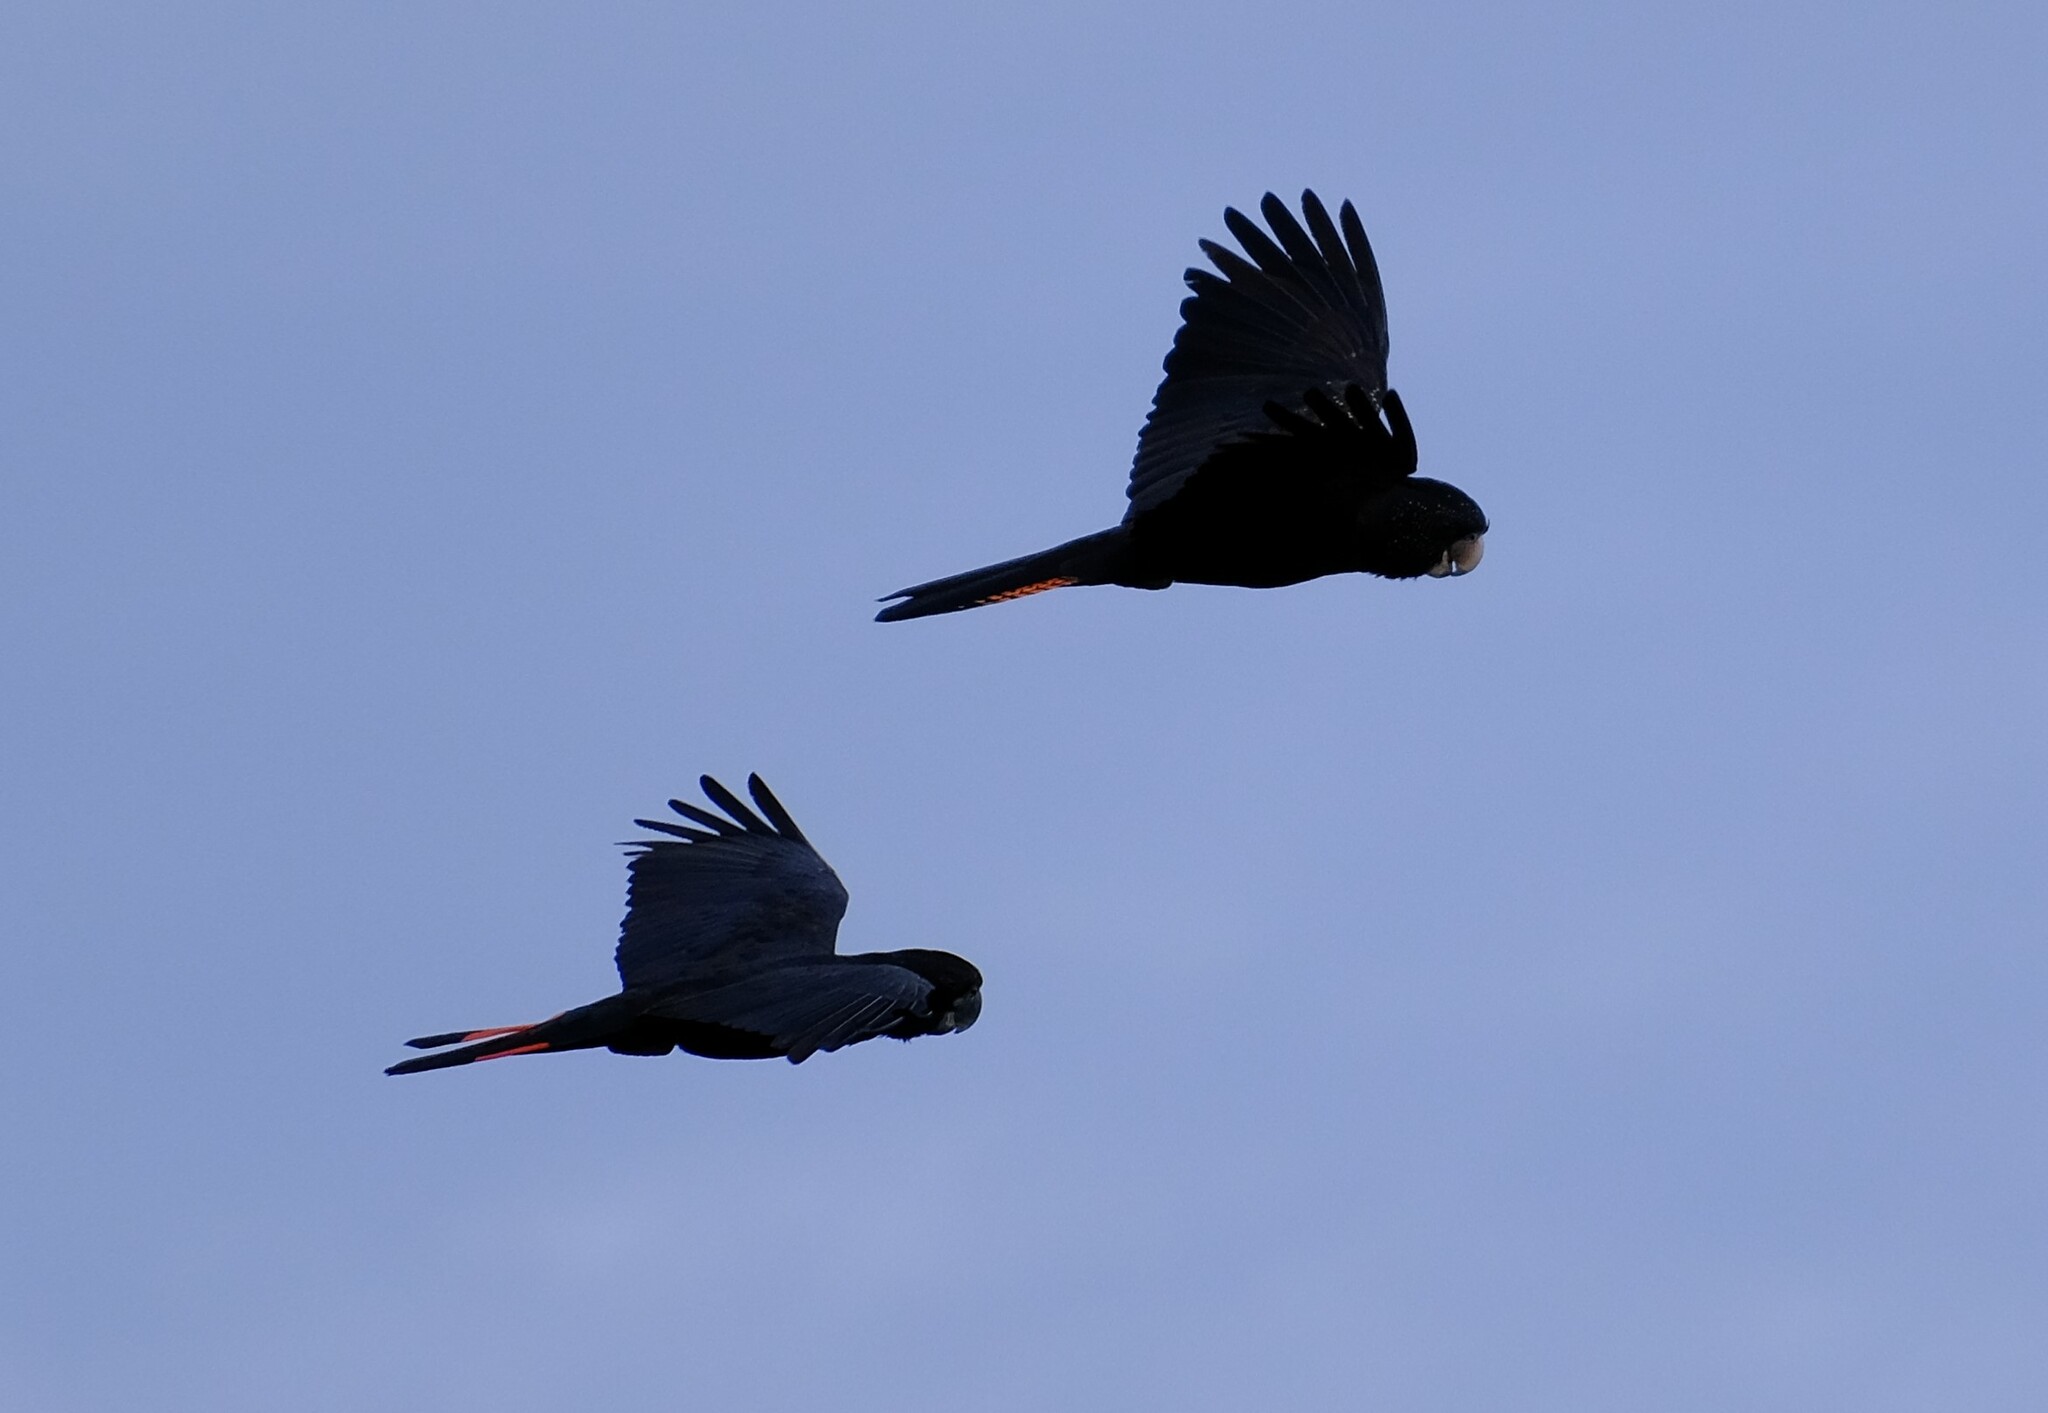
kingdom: Animalia
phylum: Chordata
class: Aves
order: Psittaciformes
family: Psittacidae
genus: Calyptorhynchus
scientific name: Calyptorhynchus banksii
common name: Red-tailed black cockatoo
